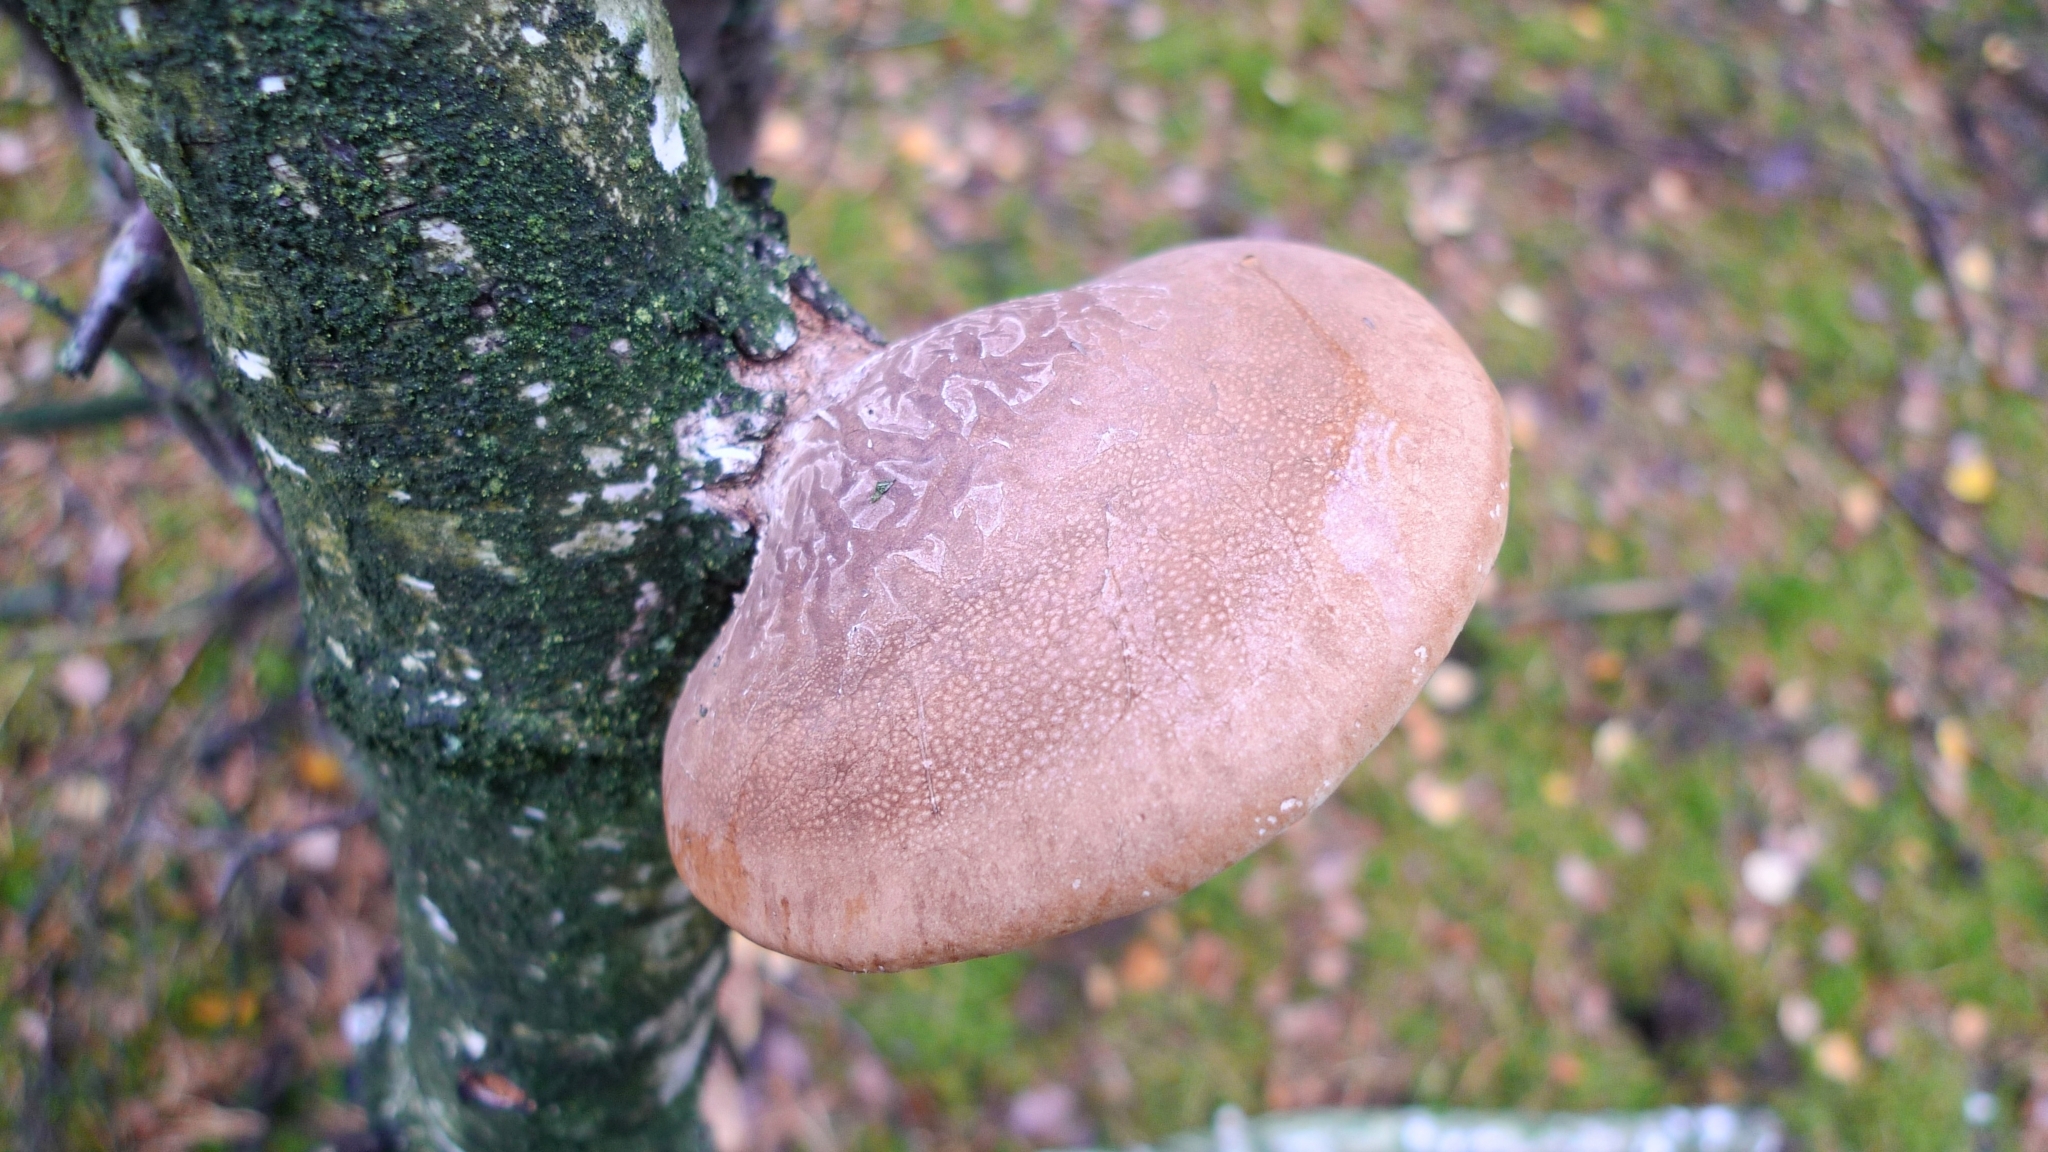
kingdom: Fungi
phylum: Basidiomycota
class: Agaricomycetes
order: Polyporales
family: Fomitopsidaceae
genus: Fomitopsis
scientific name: Fomitopsis betulina
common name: Birch polypore
